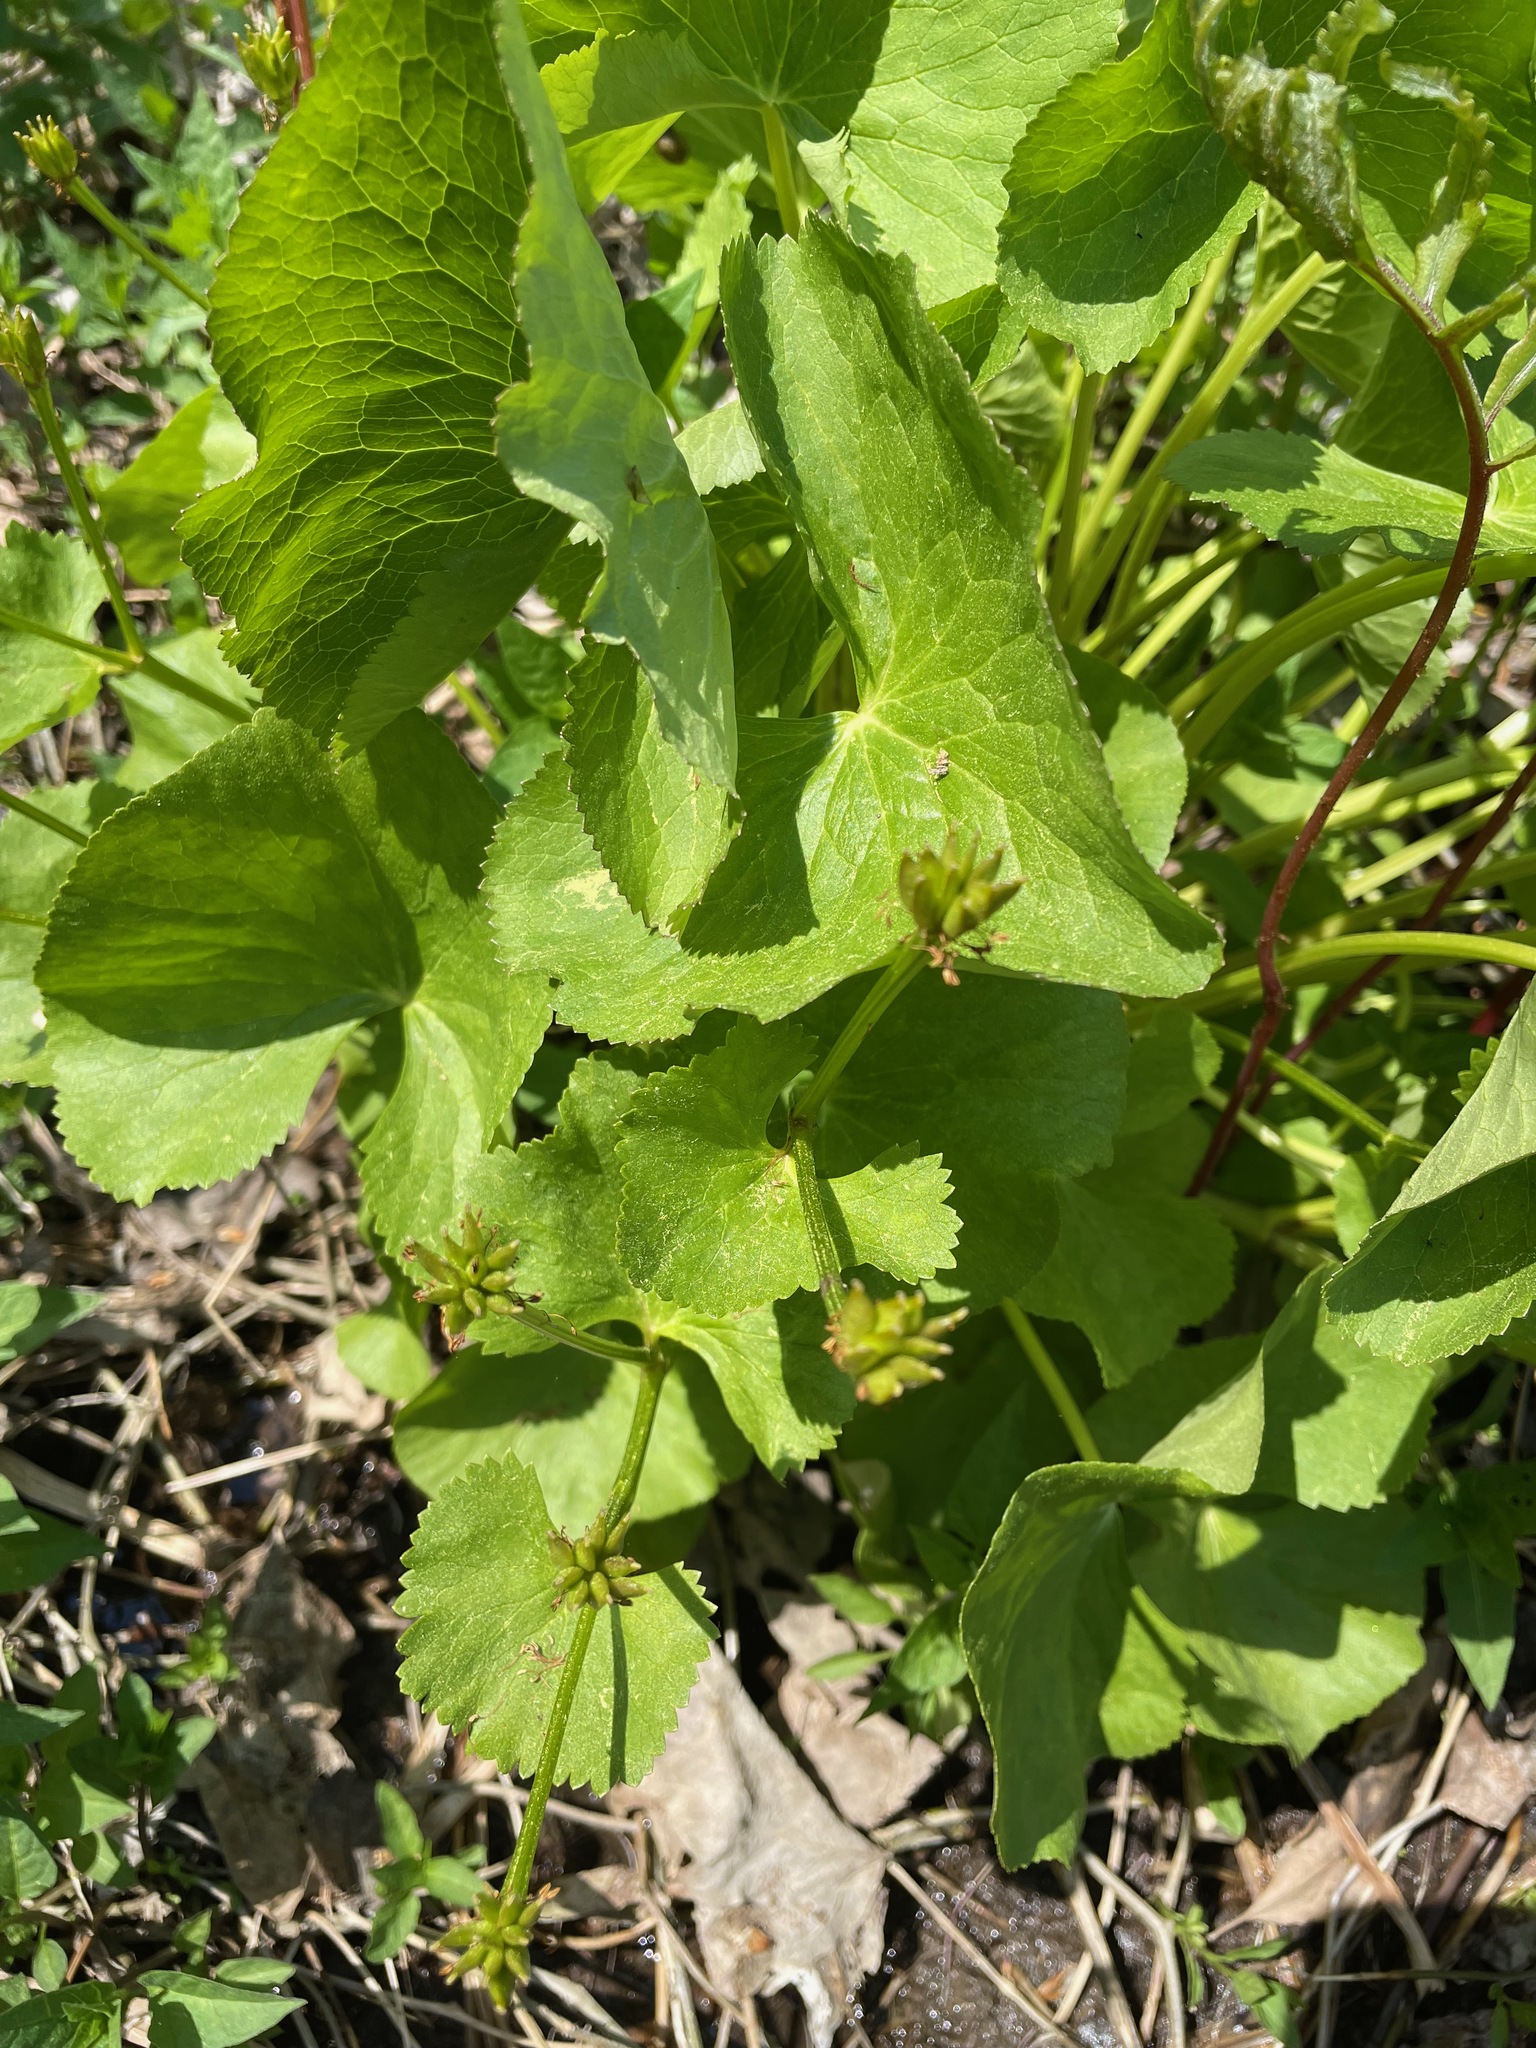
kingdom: Plantae
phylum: Tracheophyta
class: Magnoliopsida
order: Ranunculales
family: Ranunculaceae
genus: Caltha
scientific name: Caltha palustris
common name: Marsh marigold
